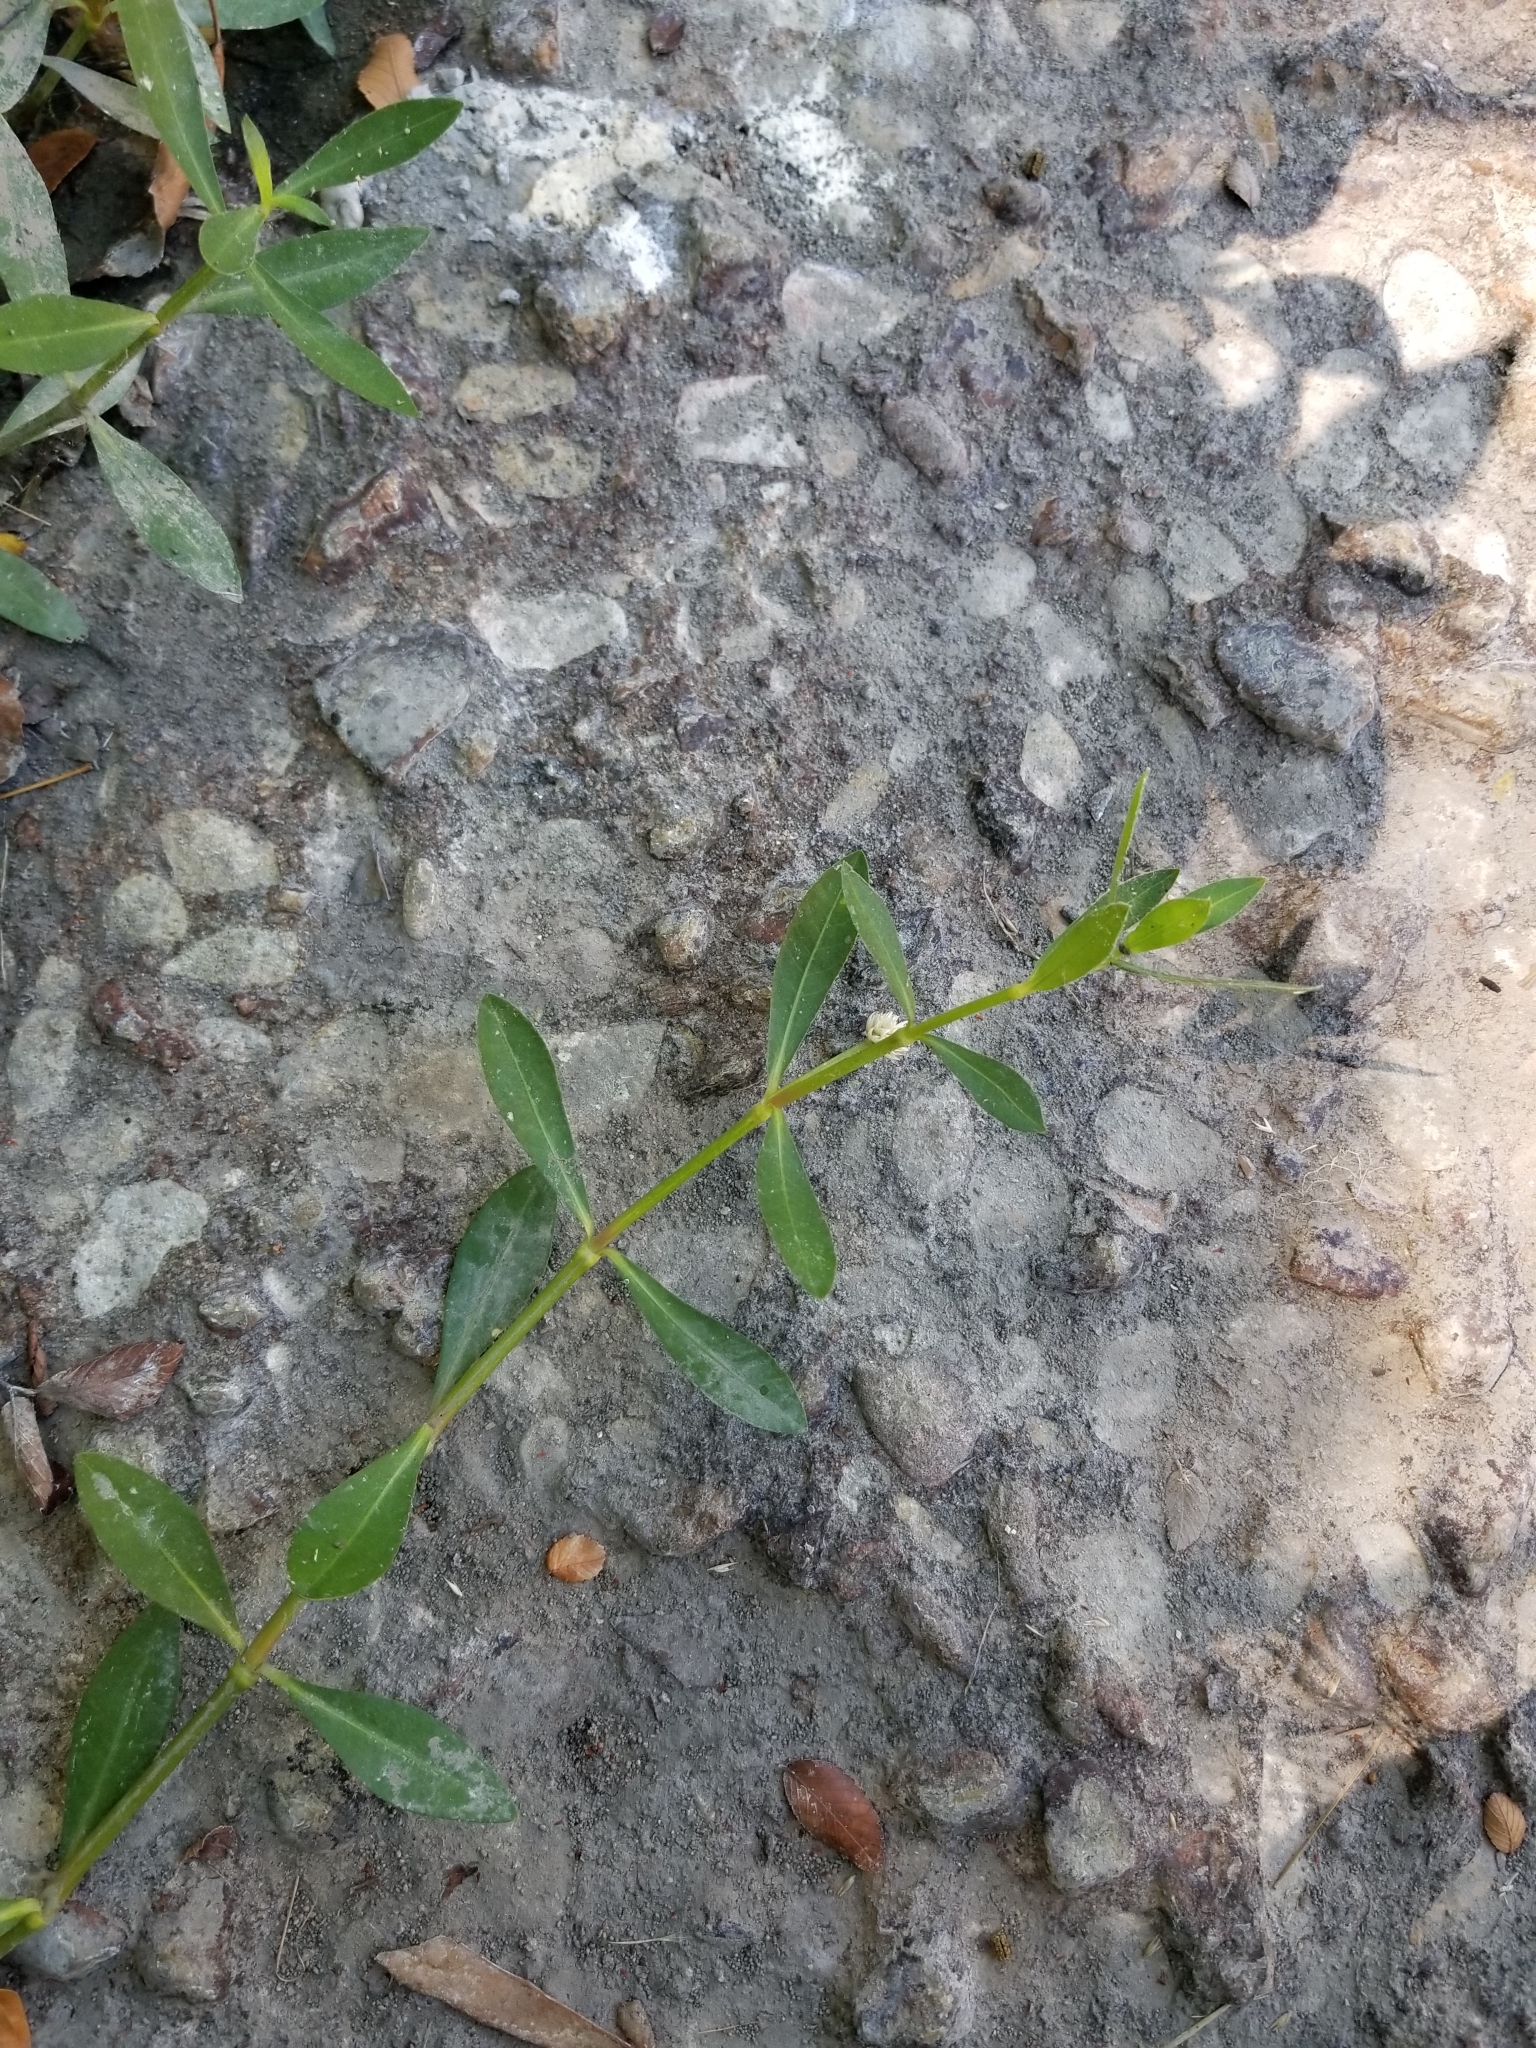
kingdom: Plantae
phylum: Tracheophyta
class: Magnoliopsida
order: Caryophyllales
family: Amaranthaceae
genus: Alternanthera
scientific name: Alternanthera philoxeroides
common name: Alligatorweed
